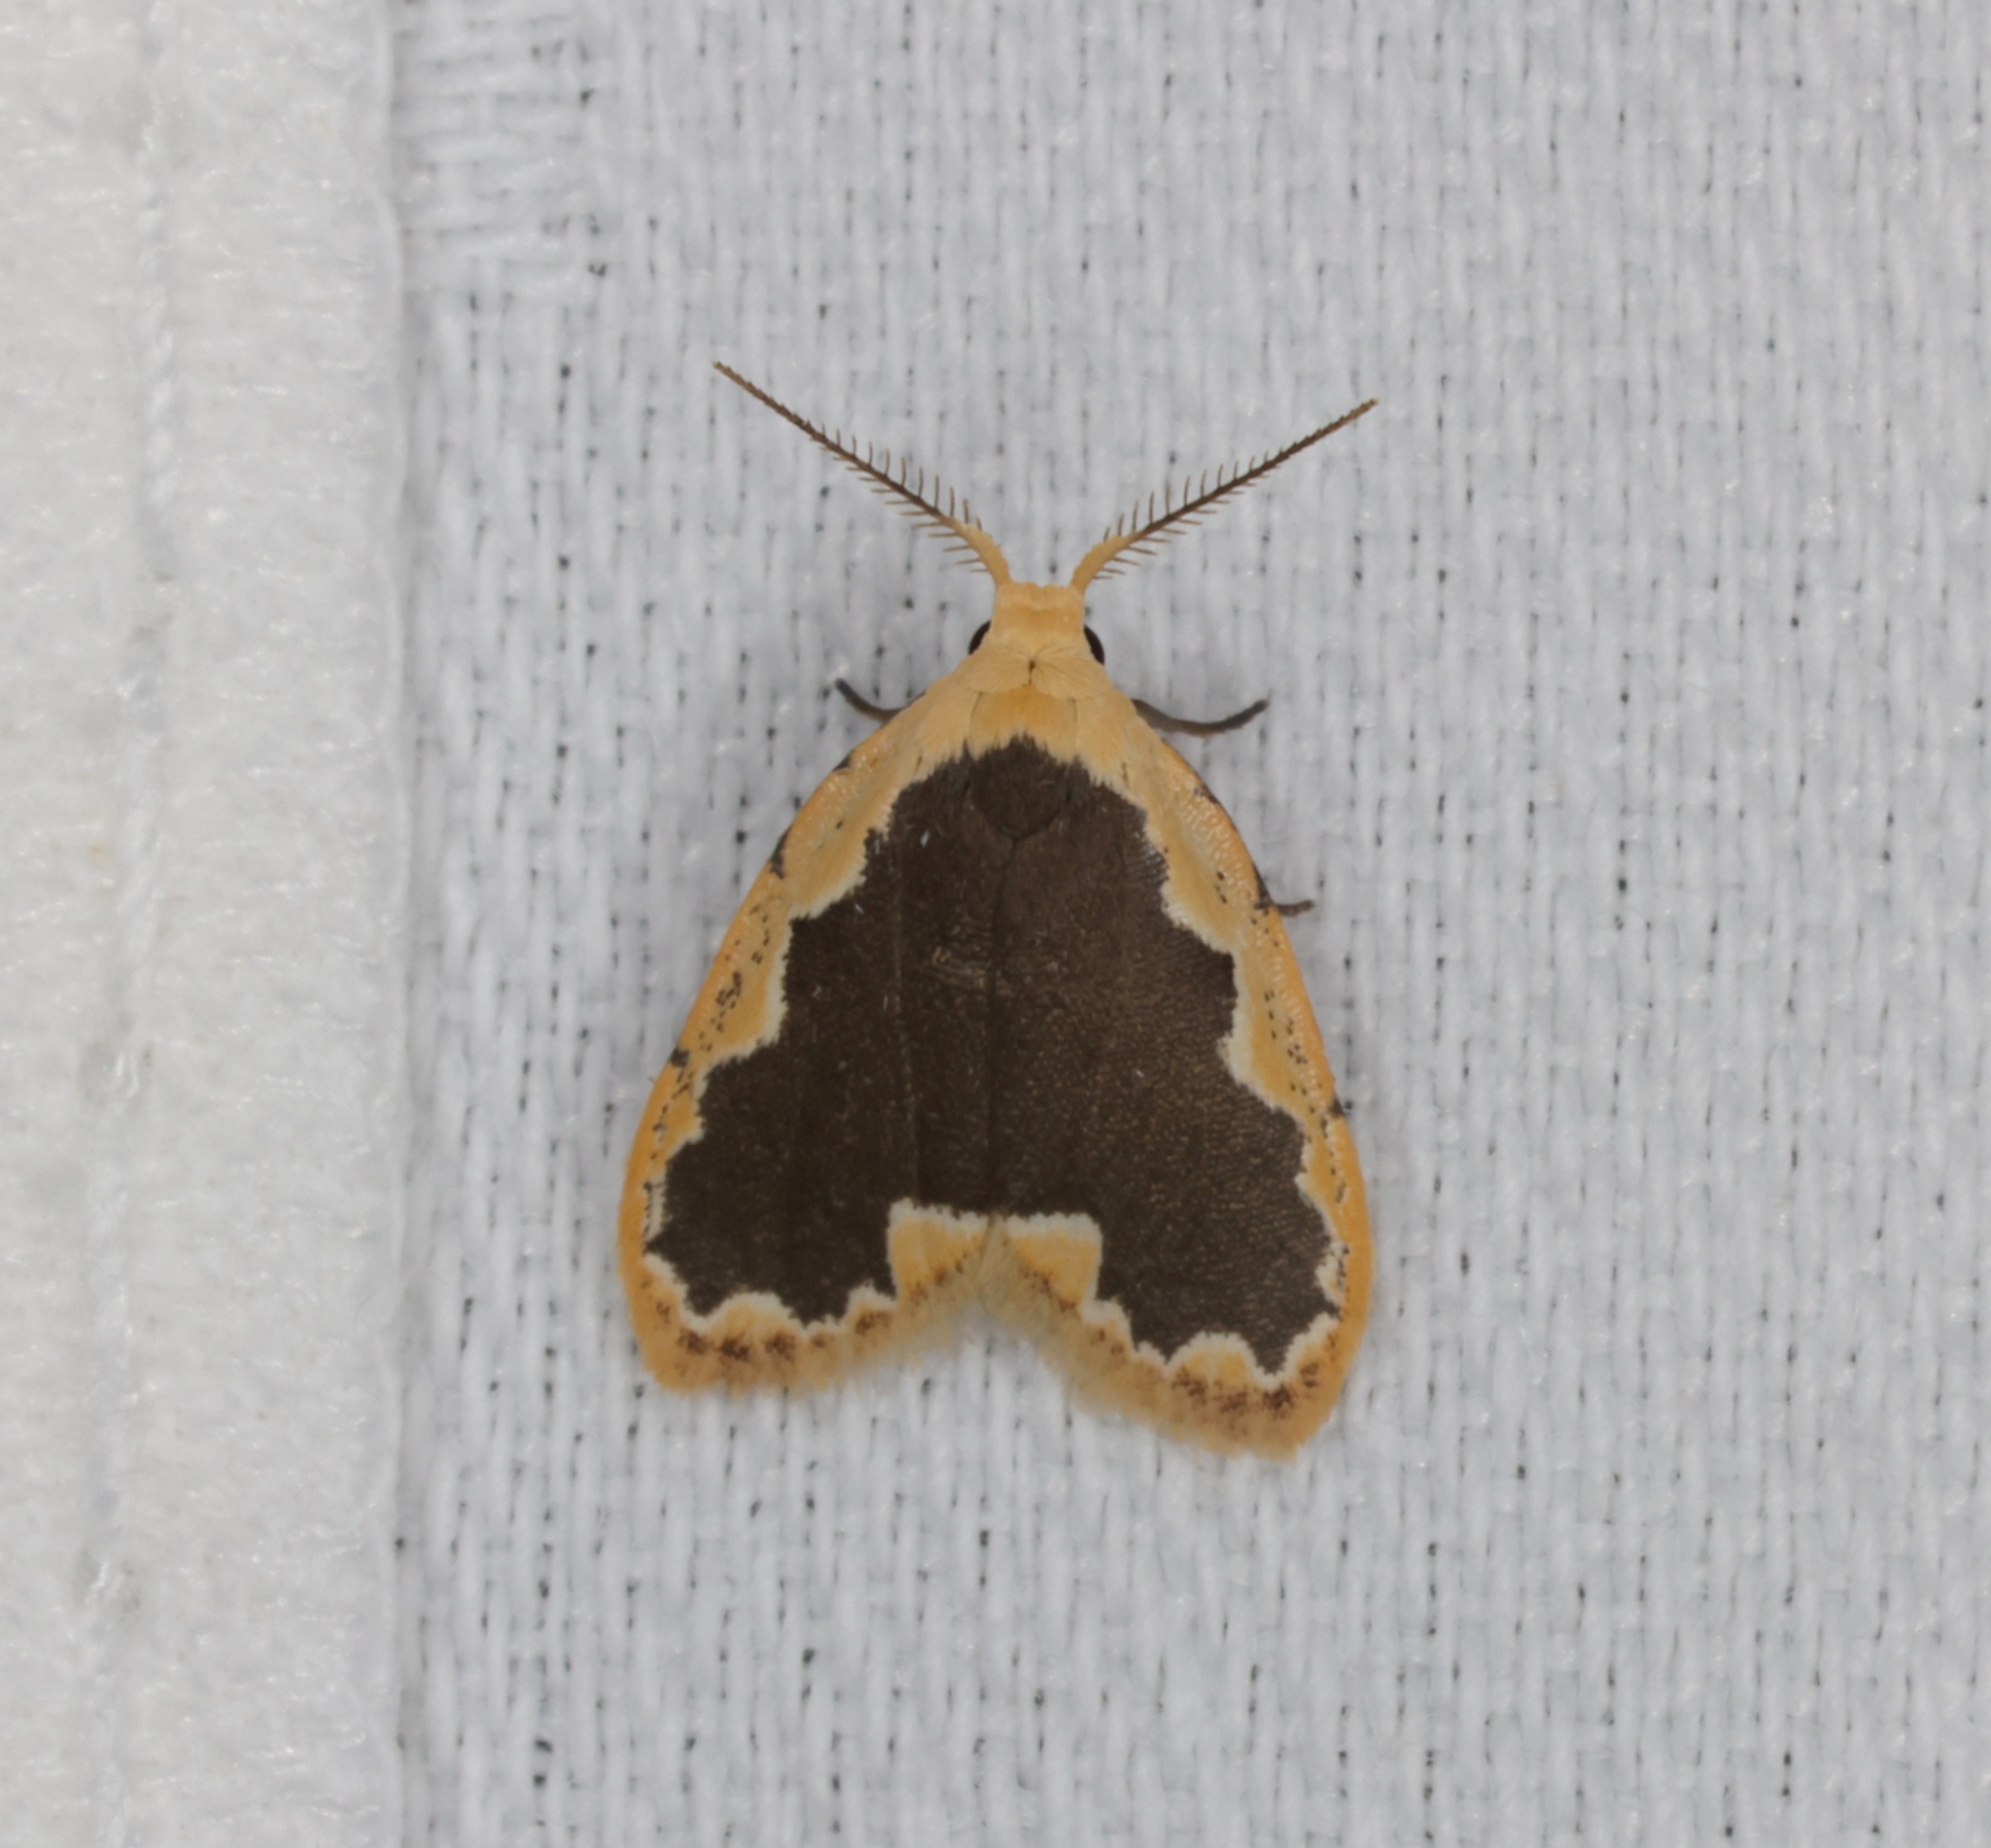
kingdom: Animalia
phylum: Arthropoda
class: Insecta
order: Lepidoptera
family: Erebidae
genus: Diduga
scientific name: Diduga flavicostata
